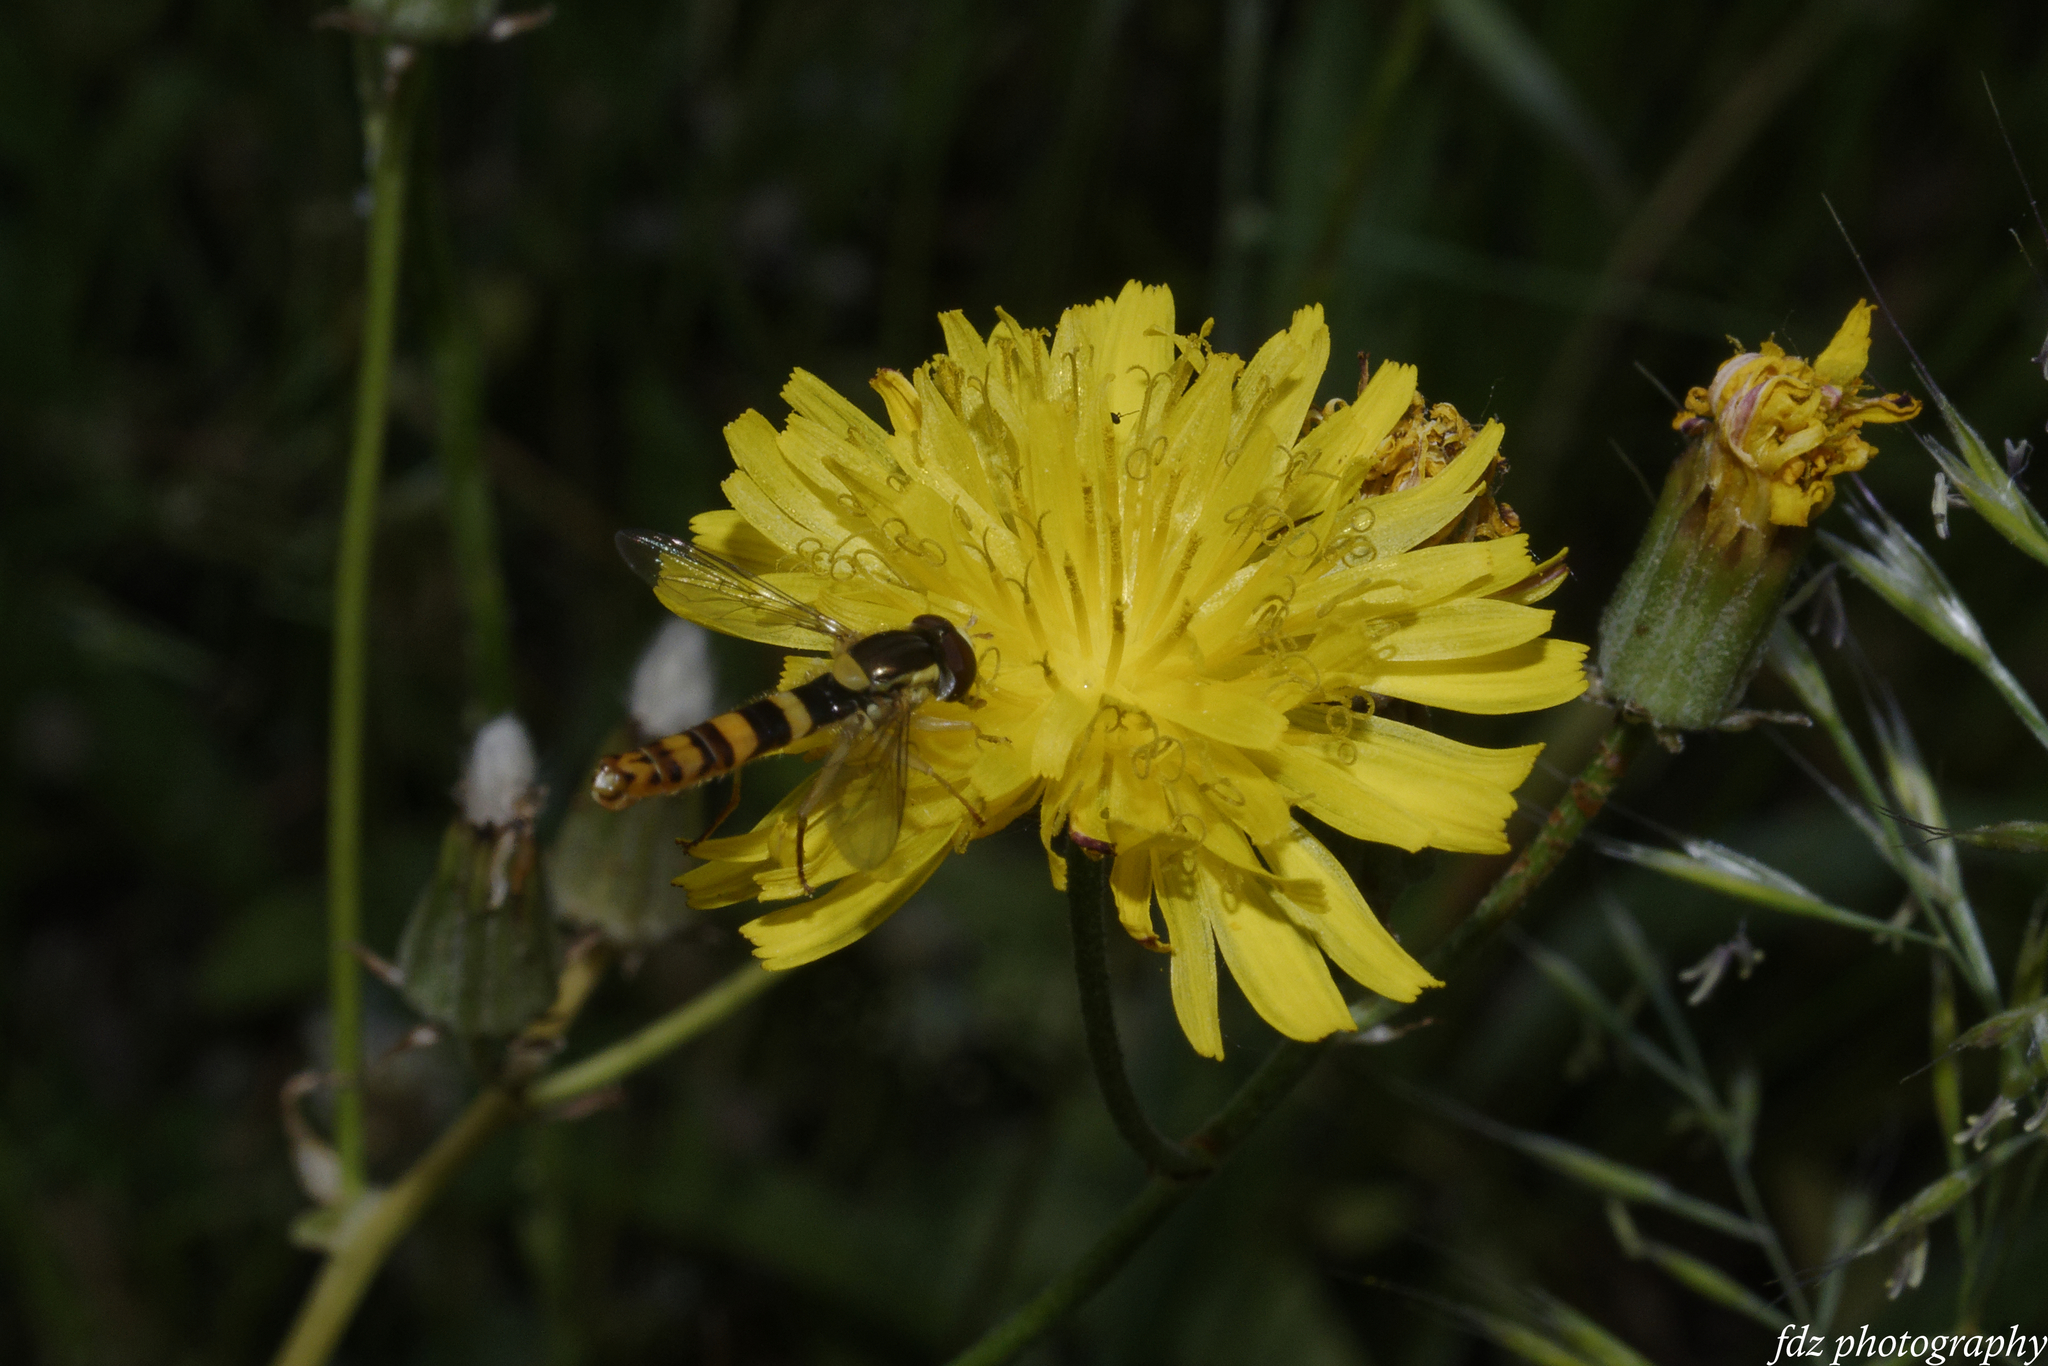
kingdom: Animalia
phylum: Arthropoda
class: Insecta
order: Diptera
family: Syrphidae
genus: Sphaerophoria
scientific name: Sphaerophoria scripta
